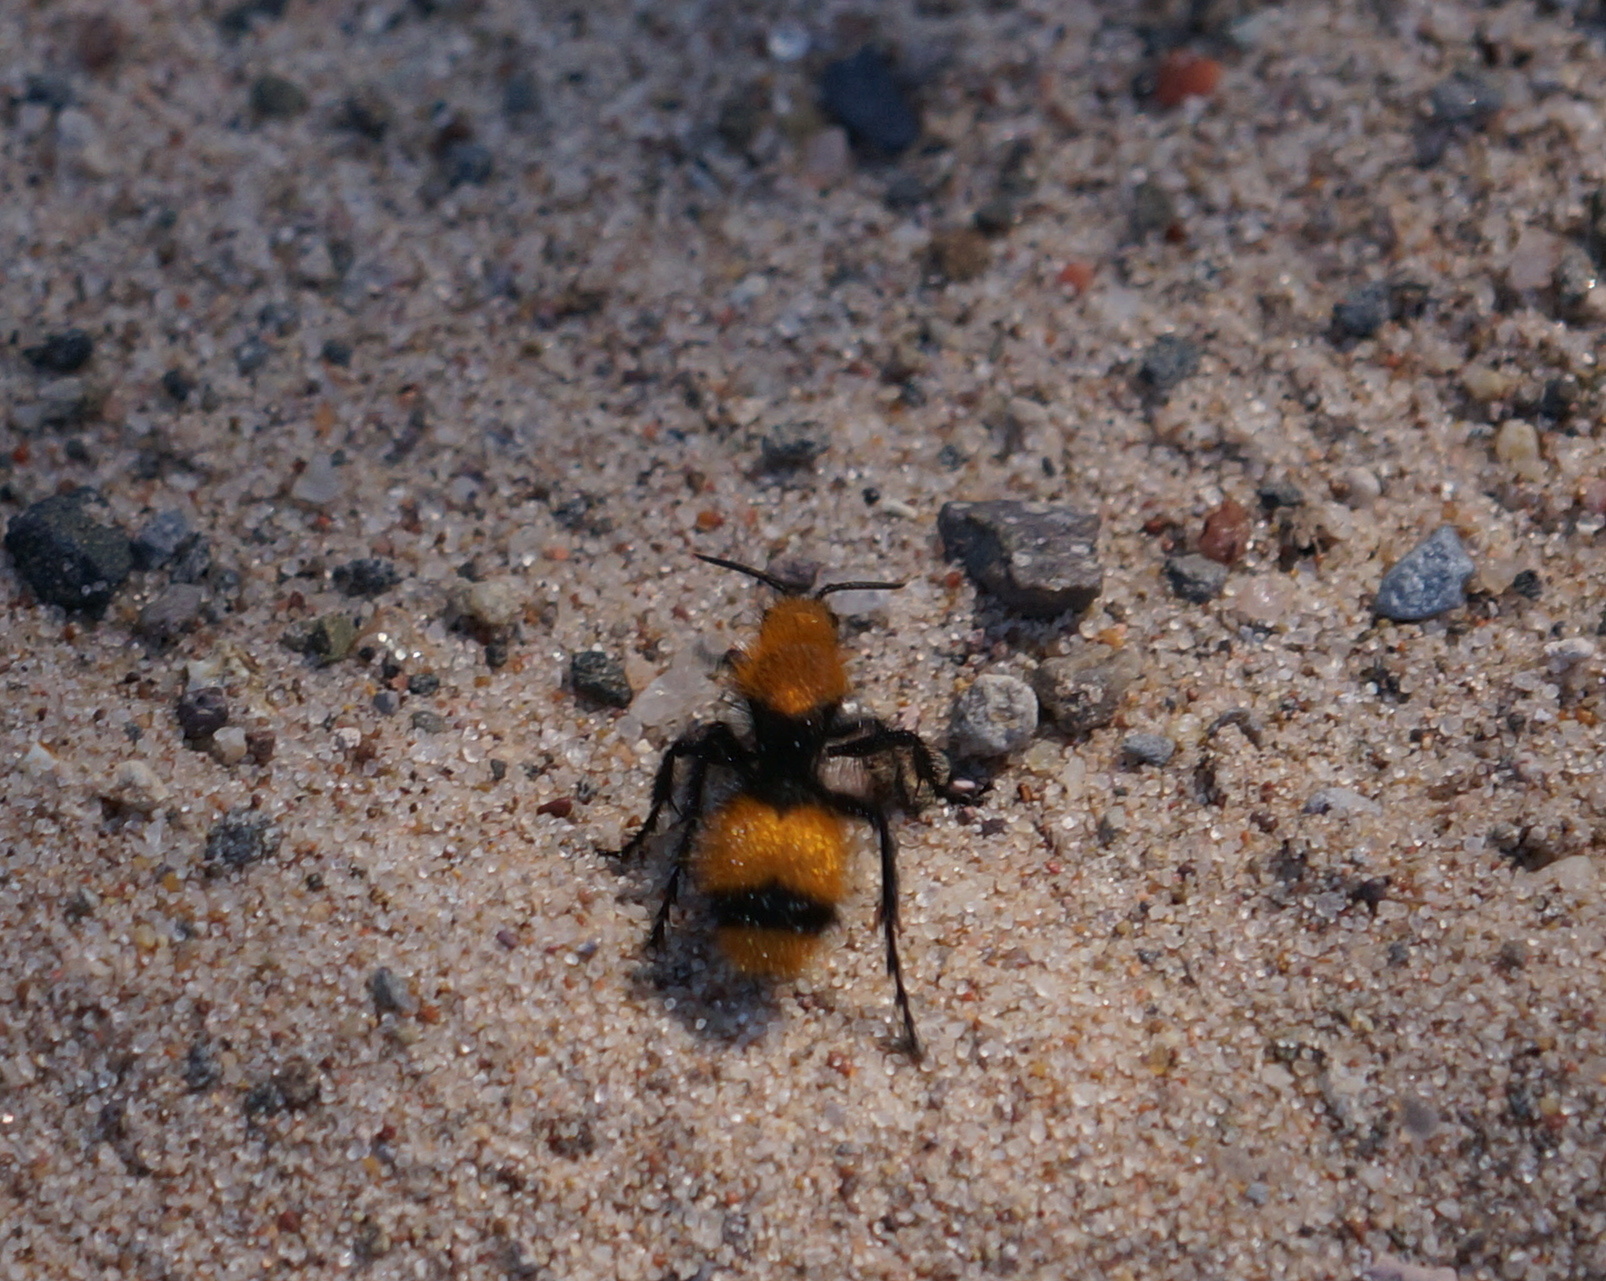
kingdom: Animalia
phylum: Arthropoda
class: Insecta
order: Hymenoptera
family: Mutillidae
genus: Dasymutilla
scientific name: Dasymutilla occidentalis
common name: Common eastern velvet ant
